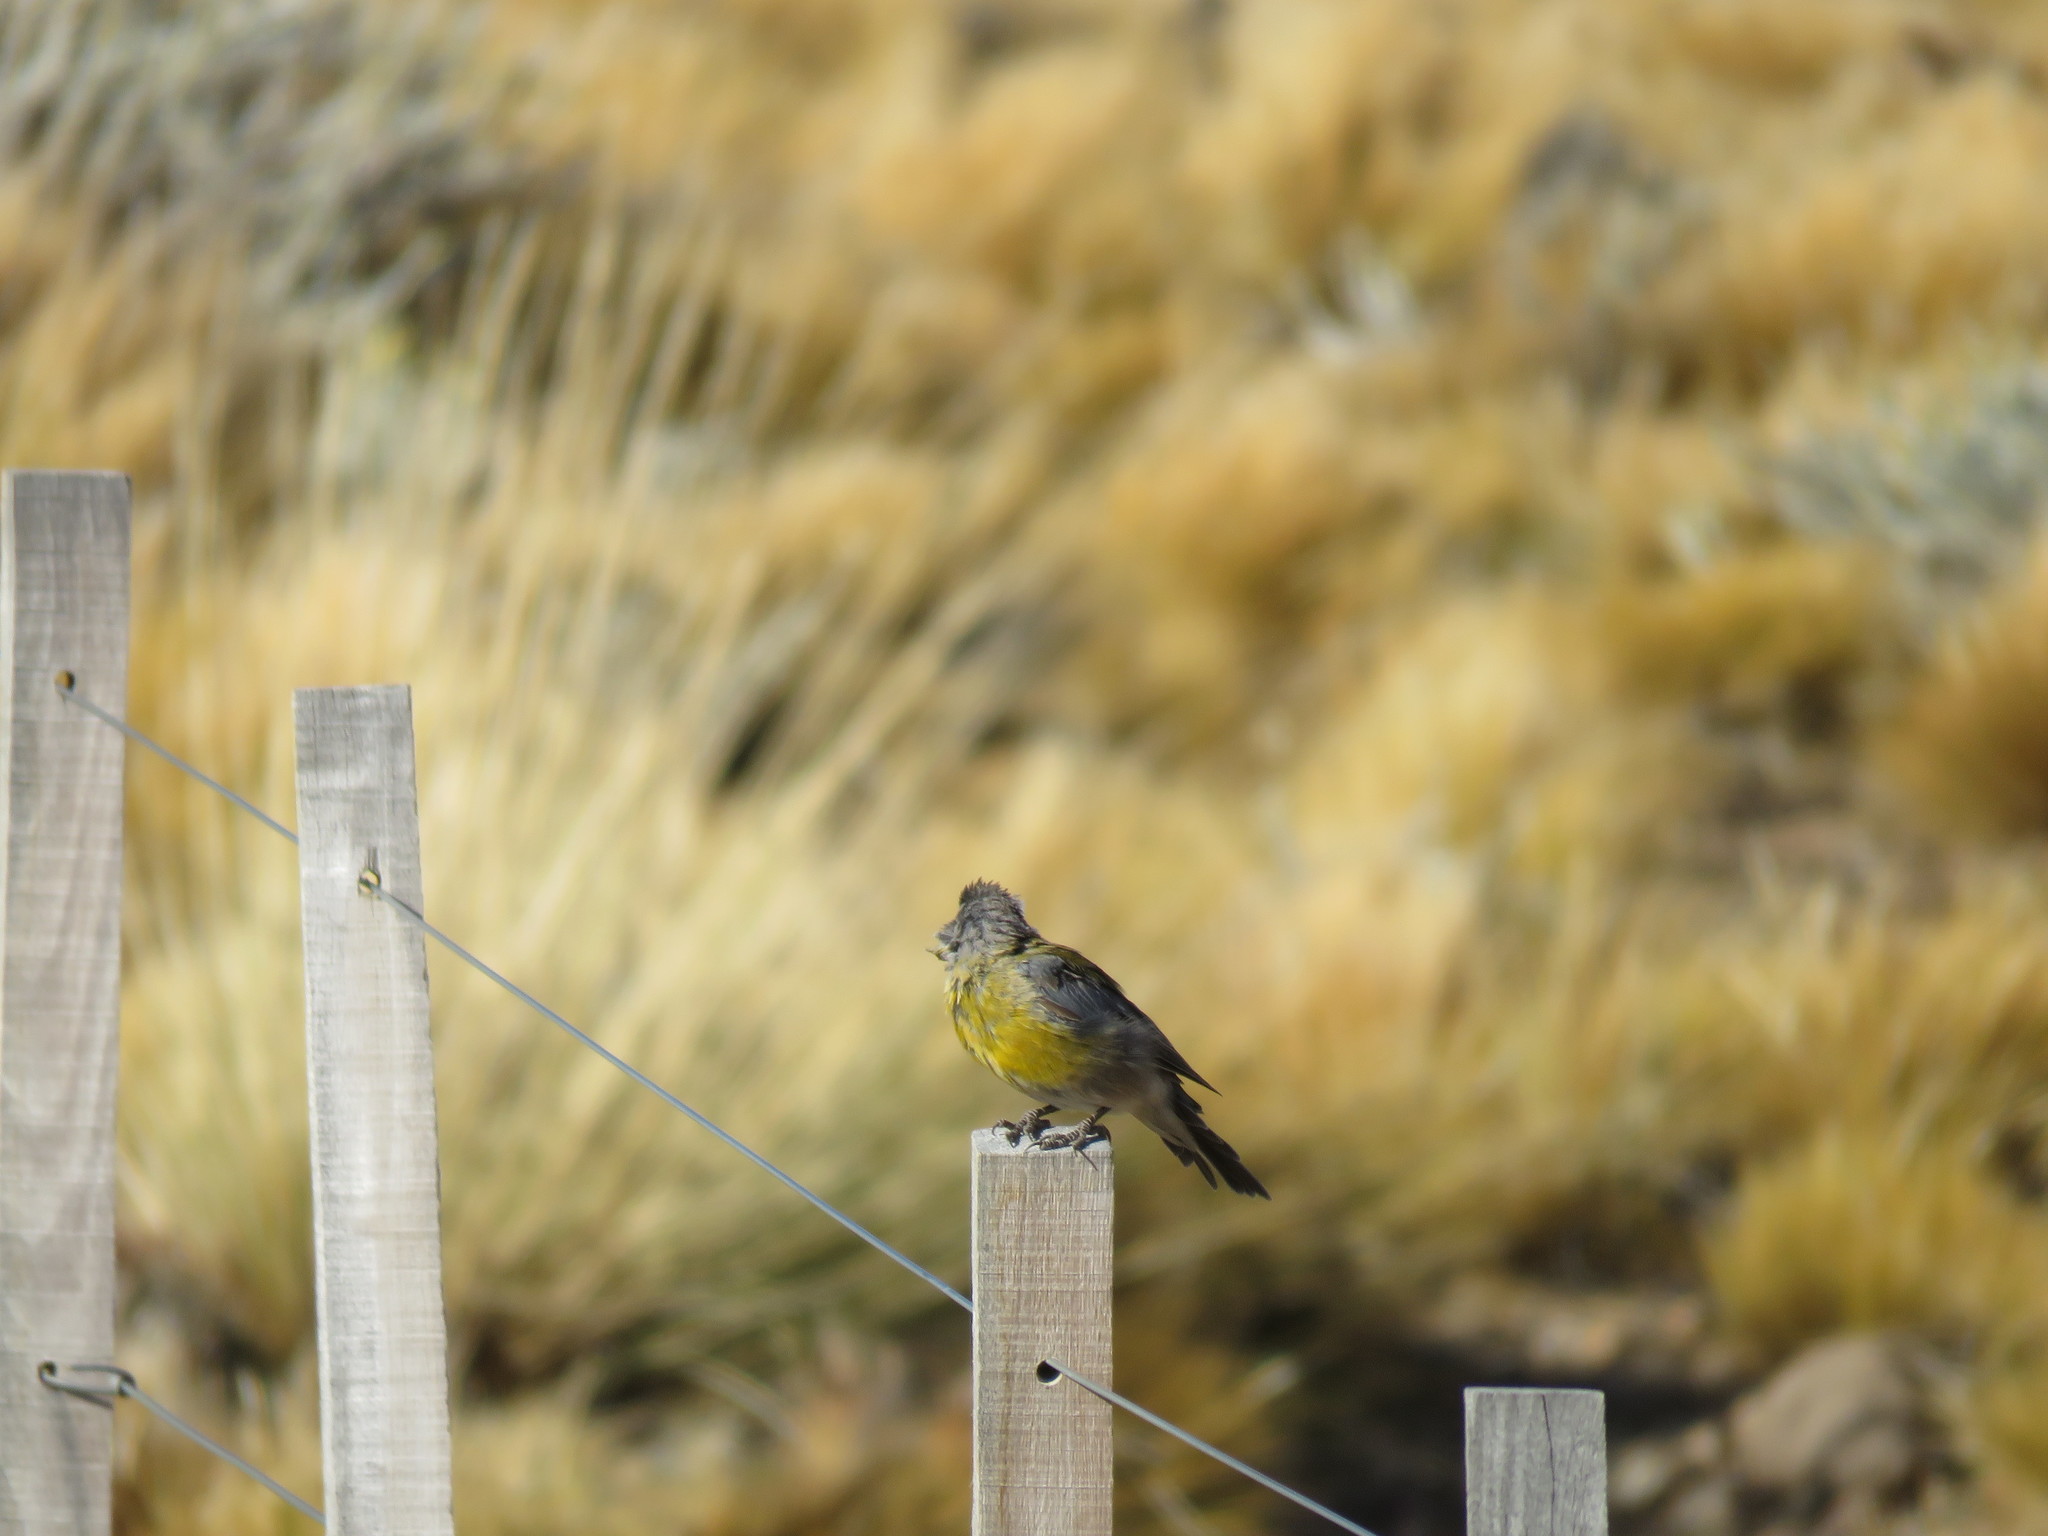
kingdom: Animalia
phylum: Chordata
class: Aves
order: Passeriformes
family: Thraupidae
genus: Phrygilus
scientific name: Phrygilus gayi
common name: Grey-hooded sierra finch
